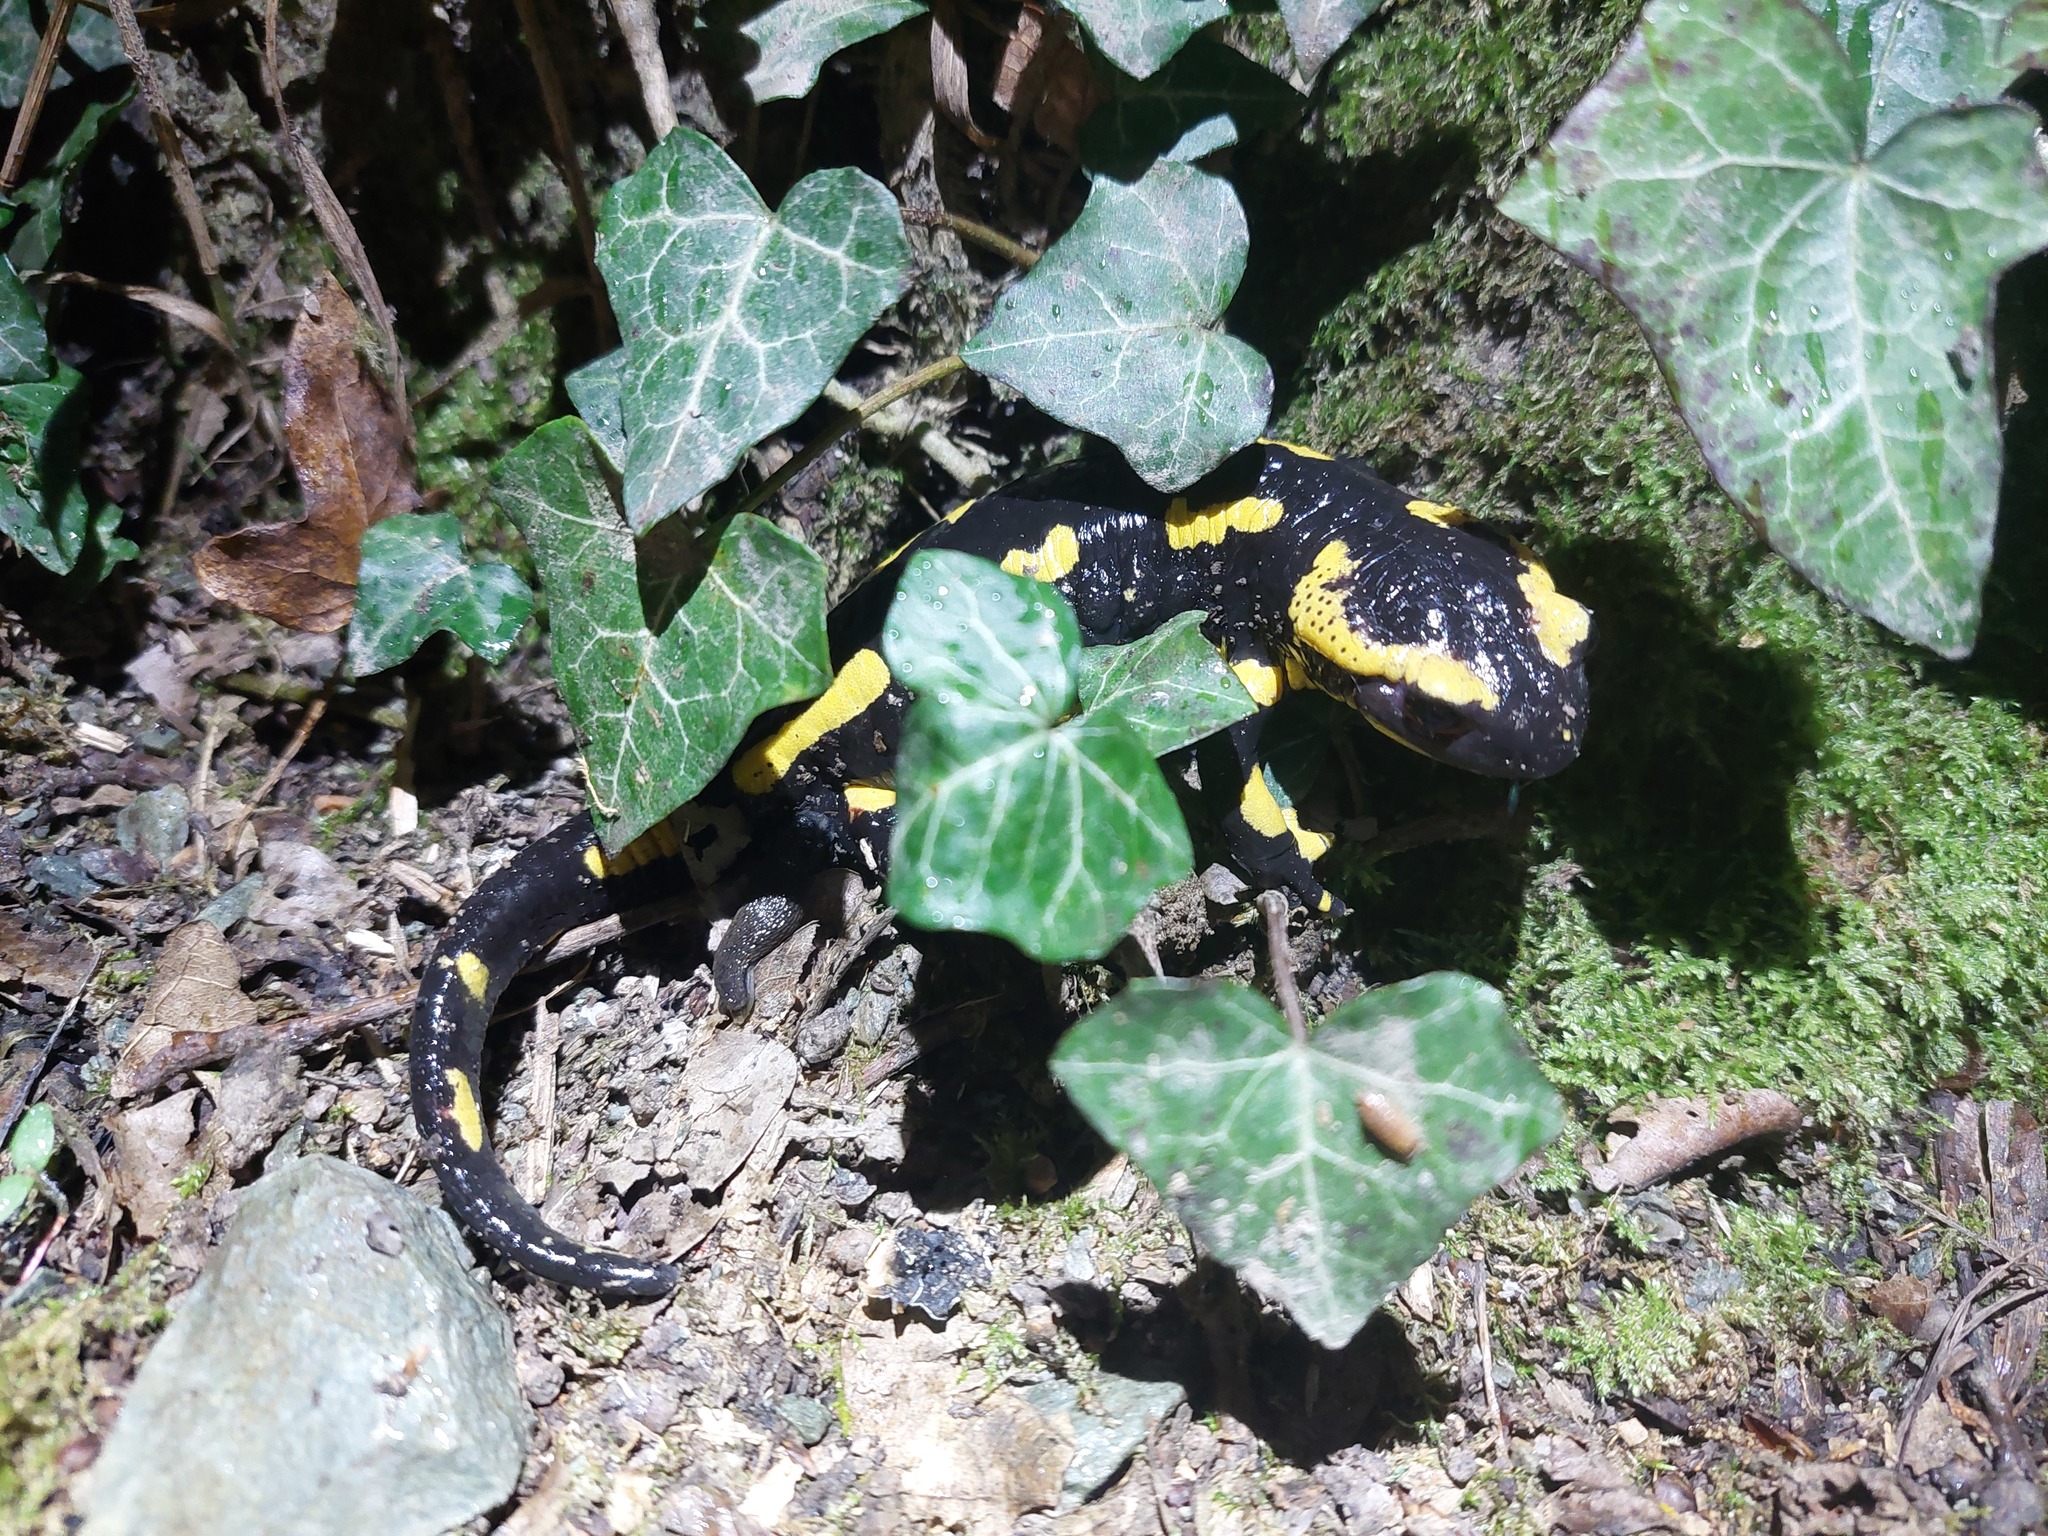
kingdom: Animalia
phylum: Chordata
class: Amphibia
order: Caudata
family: Salamandridae
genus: Salamandra
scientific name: Salamandra salamandra
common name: Fire salamander
